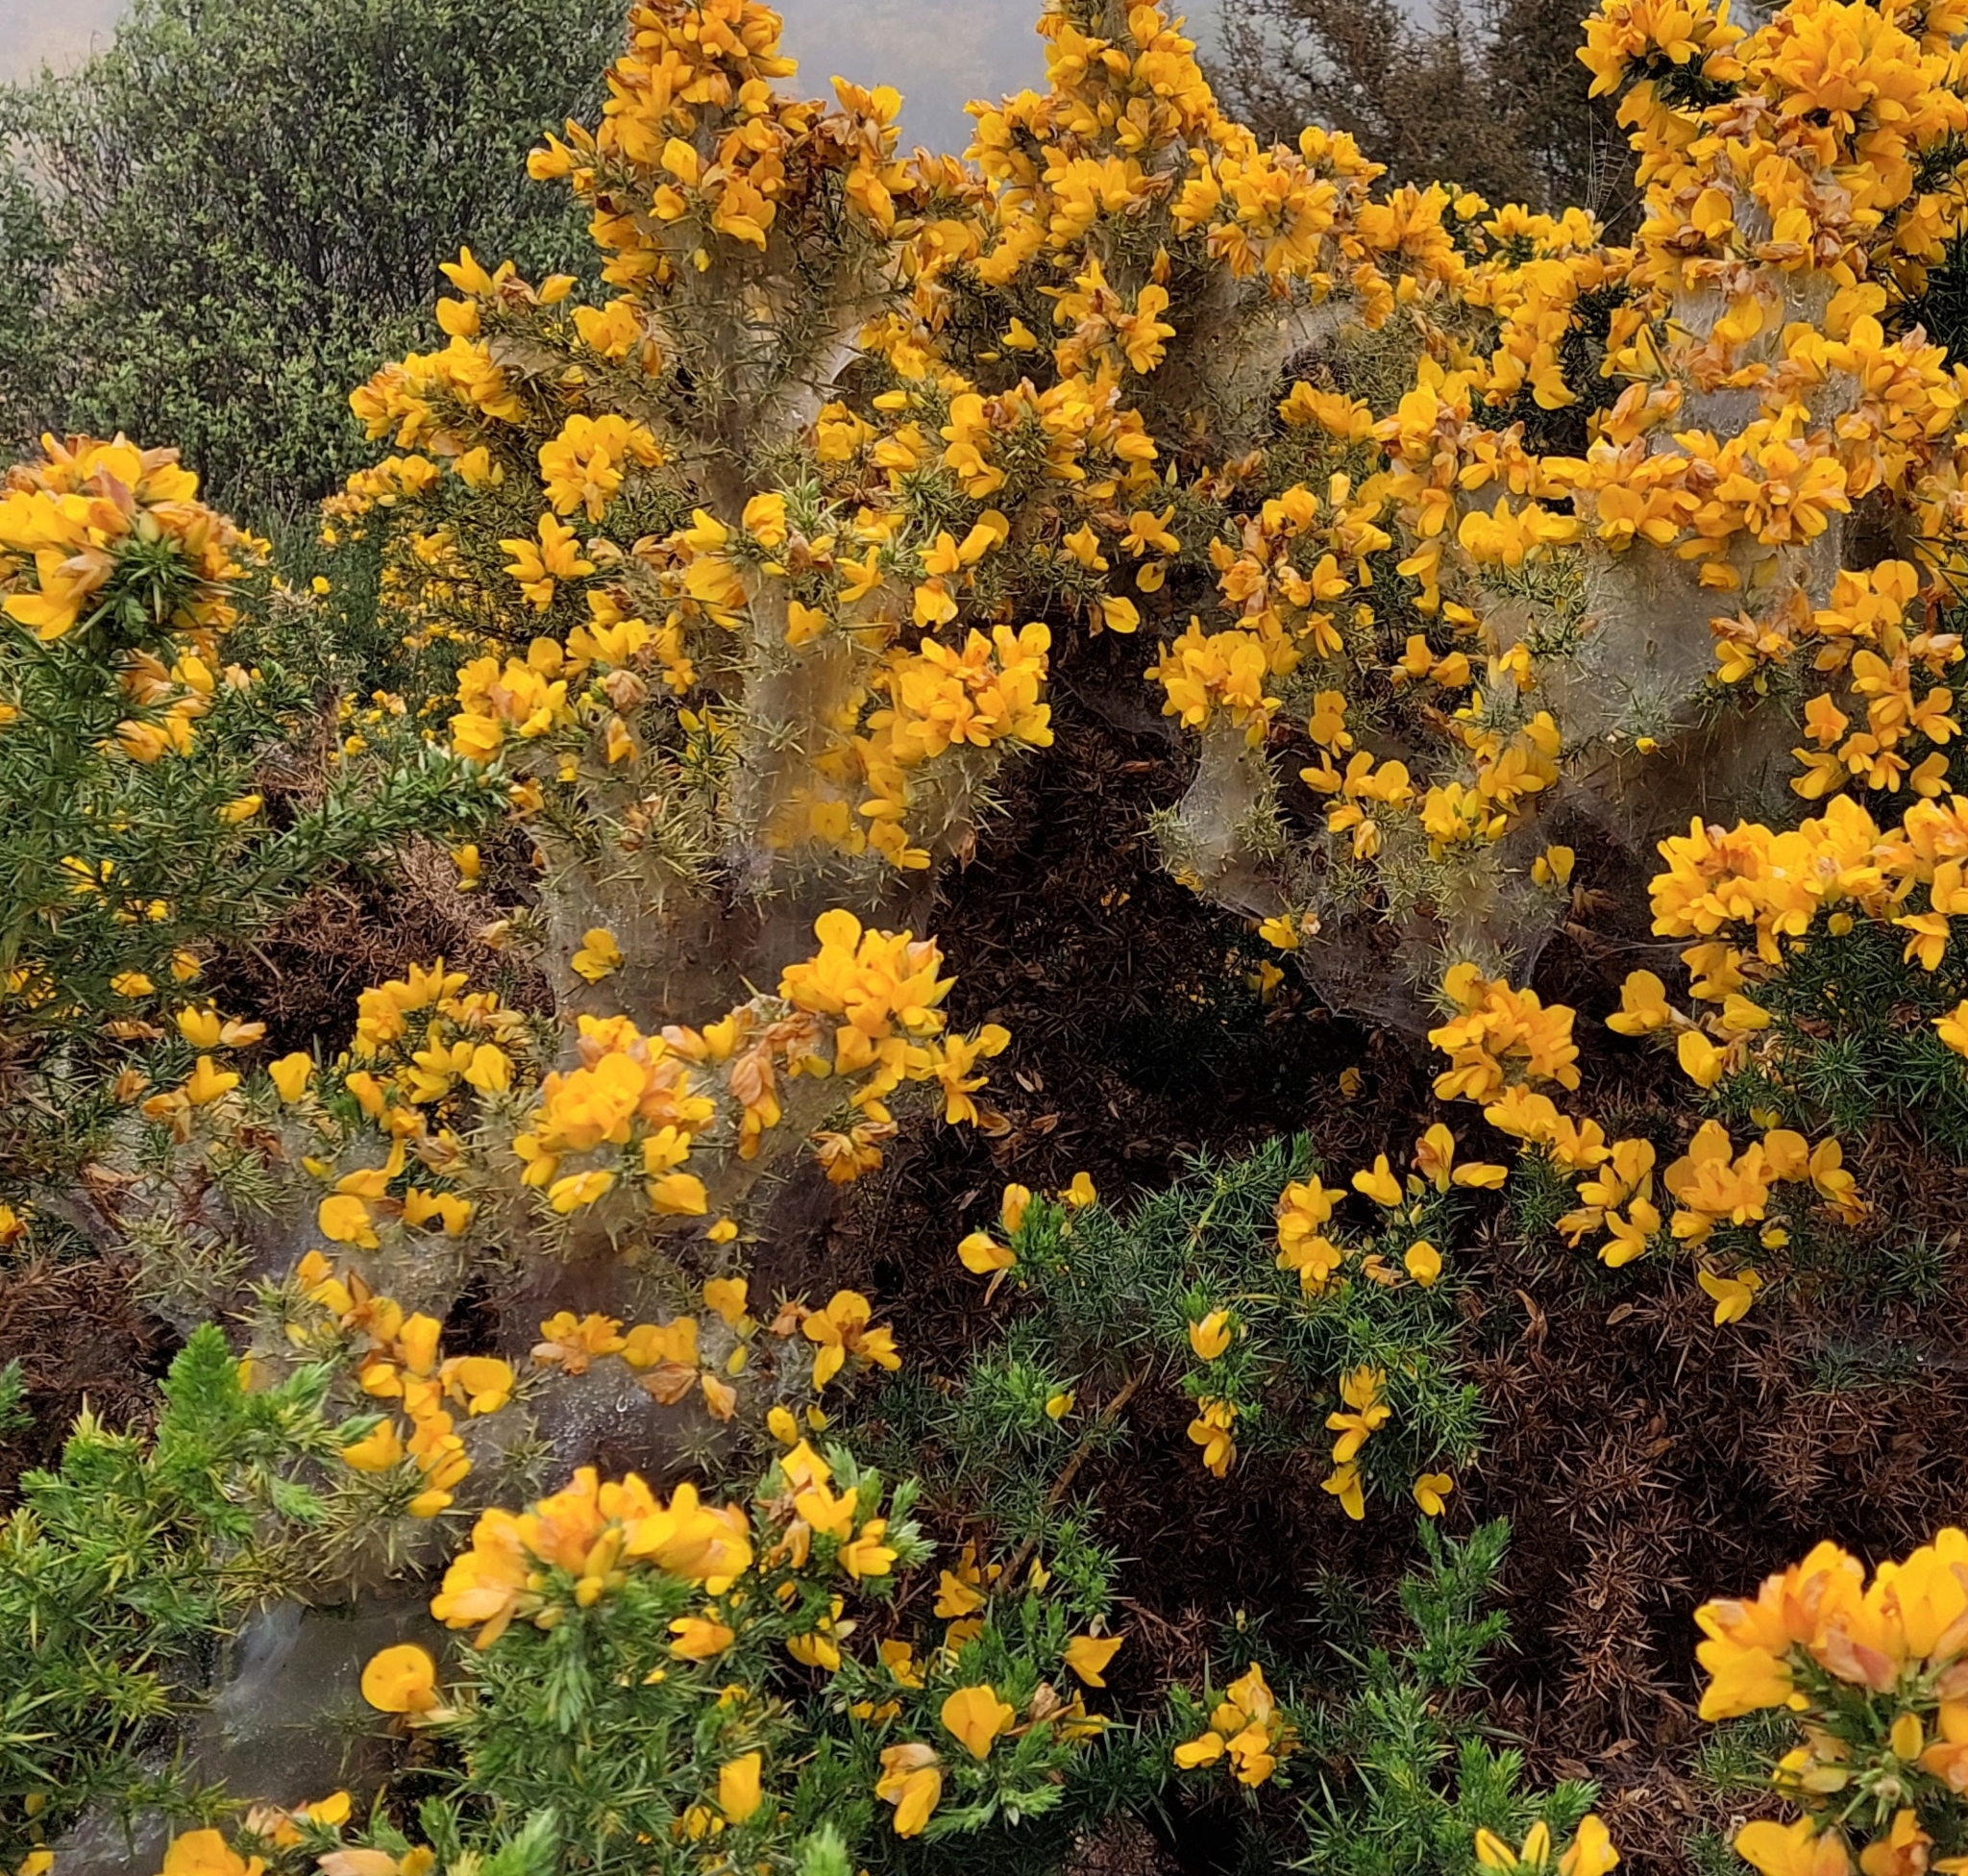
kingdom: Animalia
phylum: Arthropoda
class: Arachnida
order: Trombidiformes
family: Tetranychidae
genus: Tetranychus
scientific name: Tetranychus lintearius
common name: Gorse spider mite
